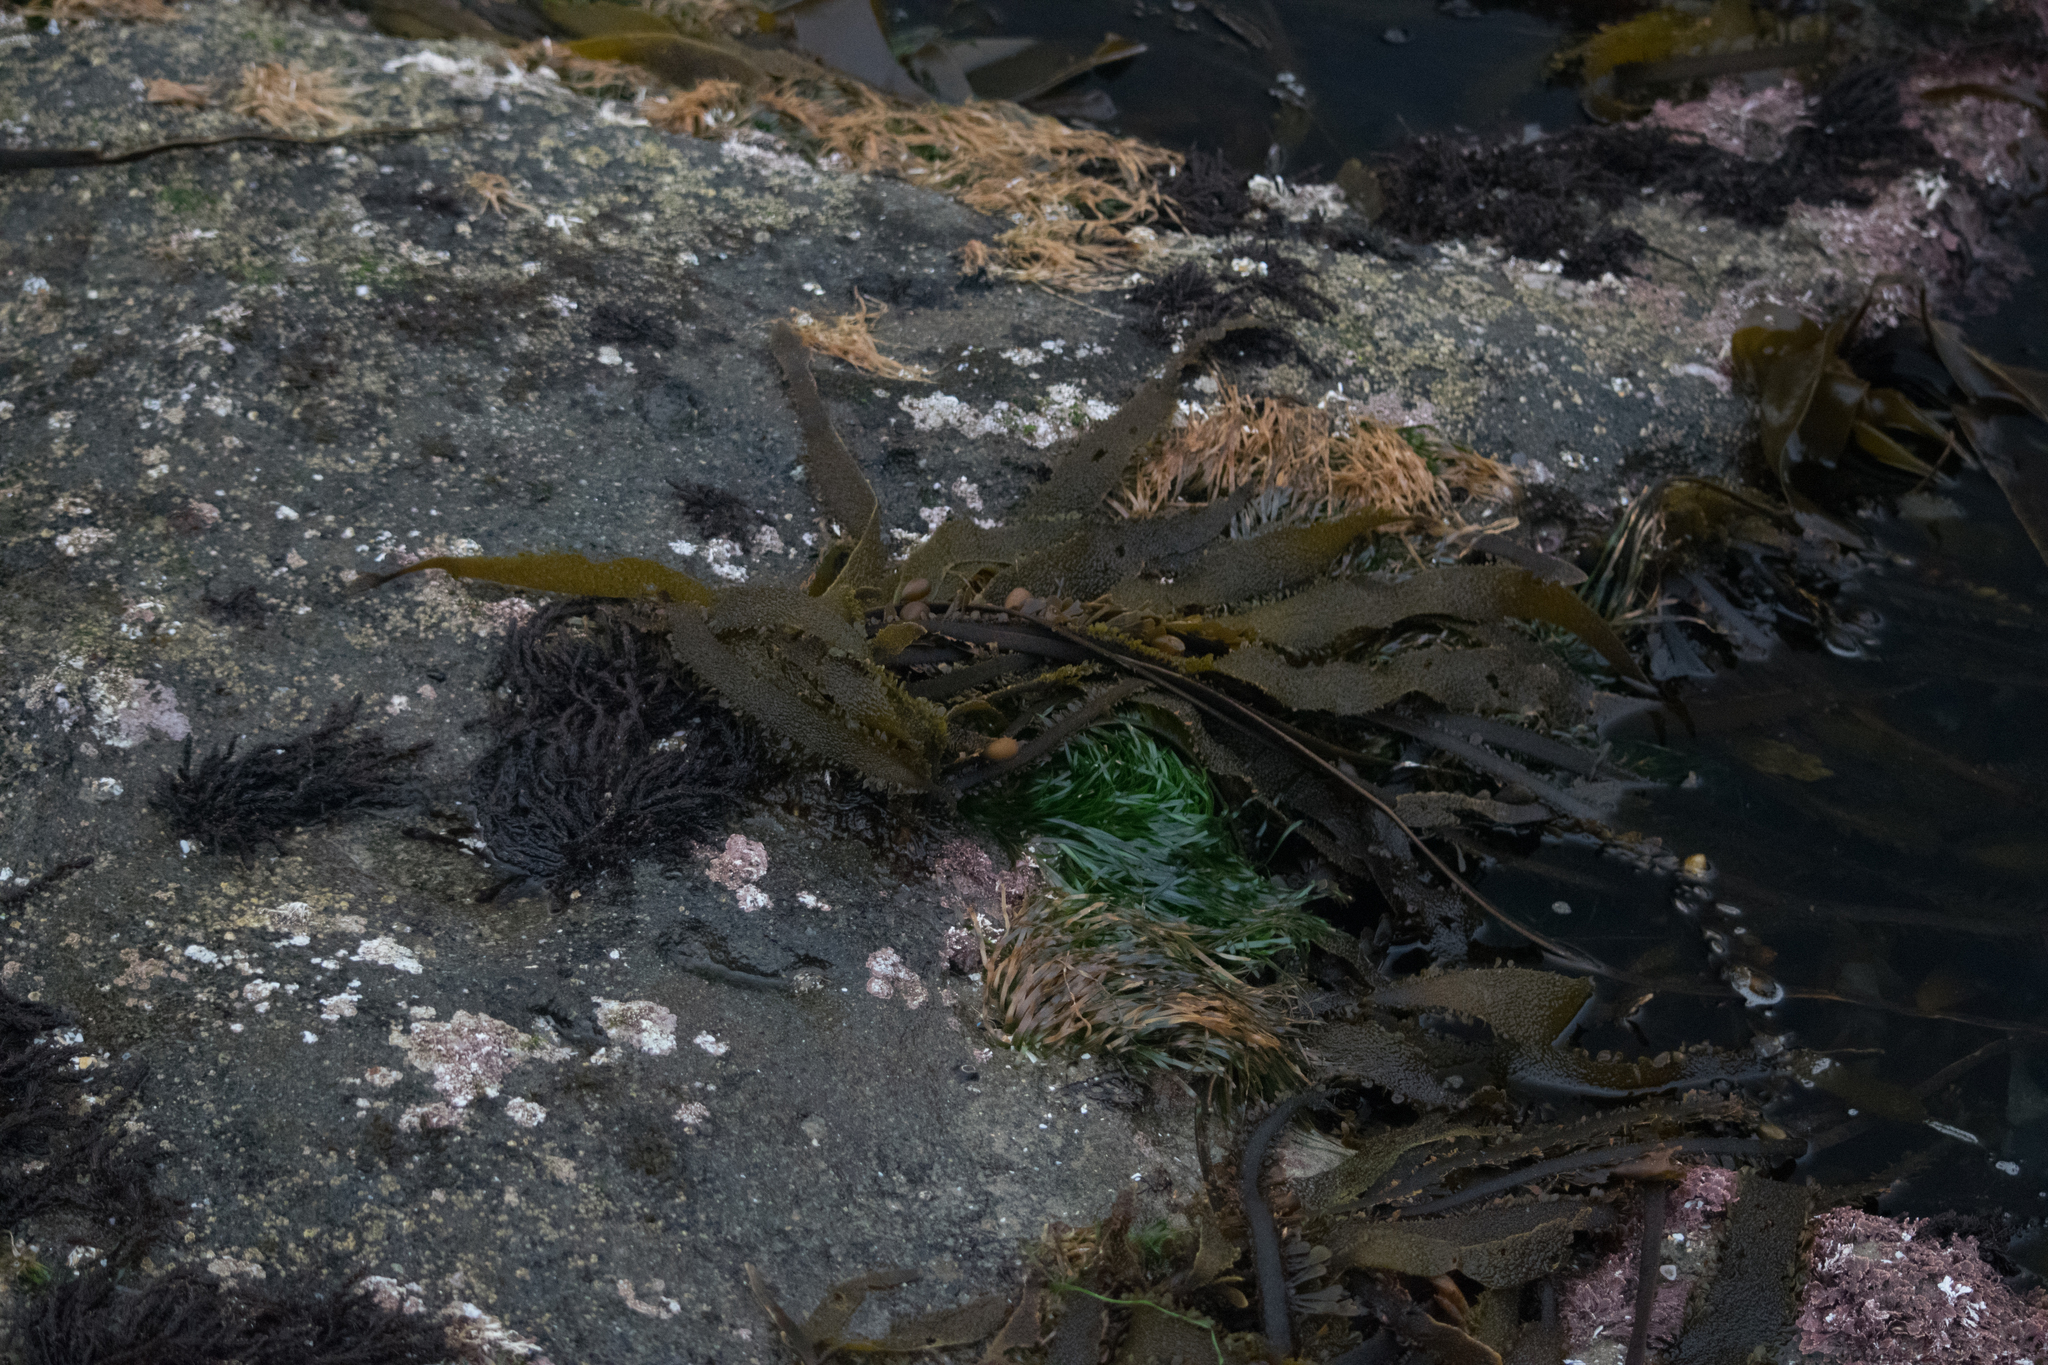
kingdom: Plantae
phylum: Tracheophyta
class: Liliopsida
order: Alismatales
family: Zosteraceae
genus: Phyllospadix
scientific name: Phyllospadix scouleri
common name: Species code: ps
